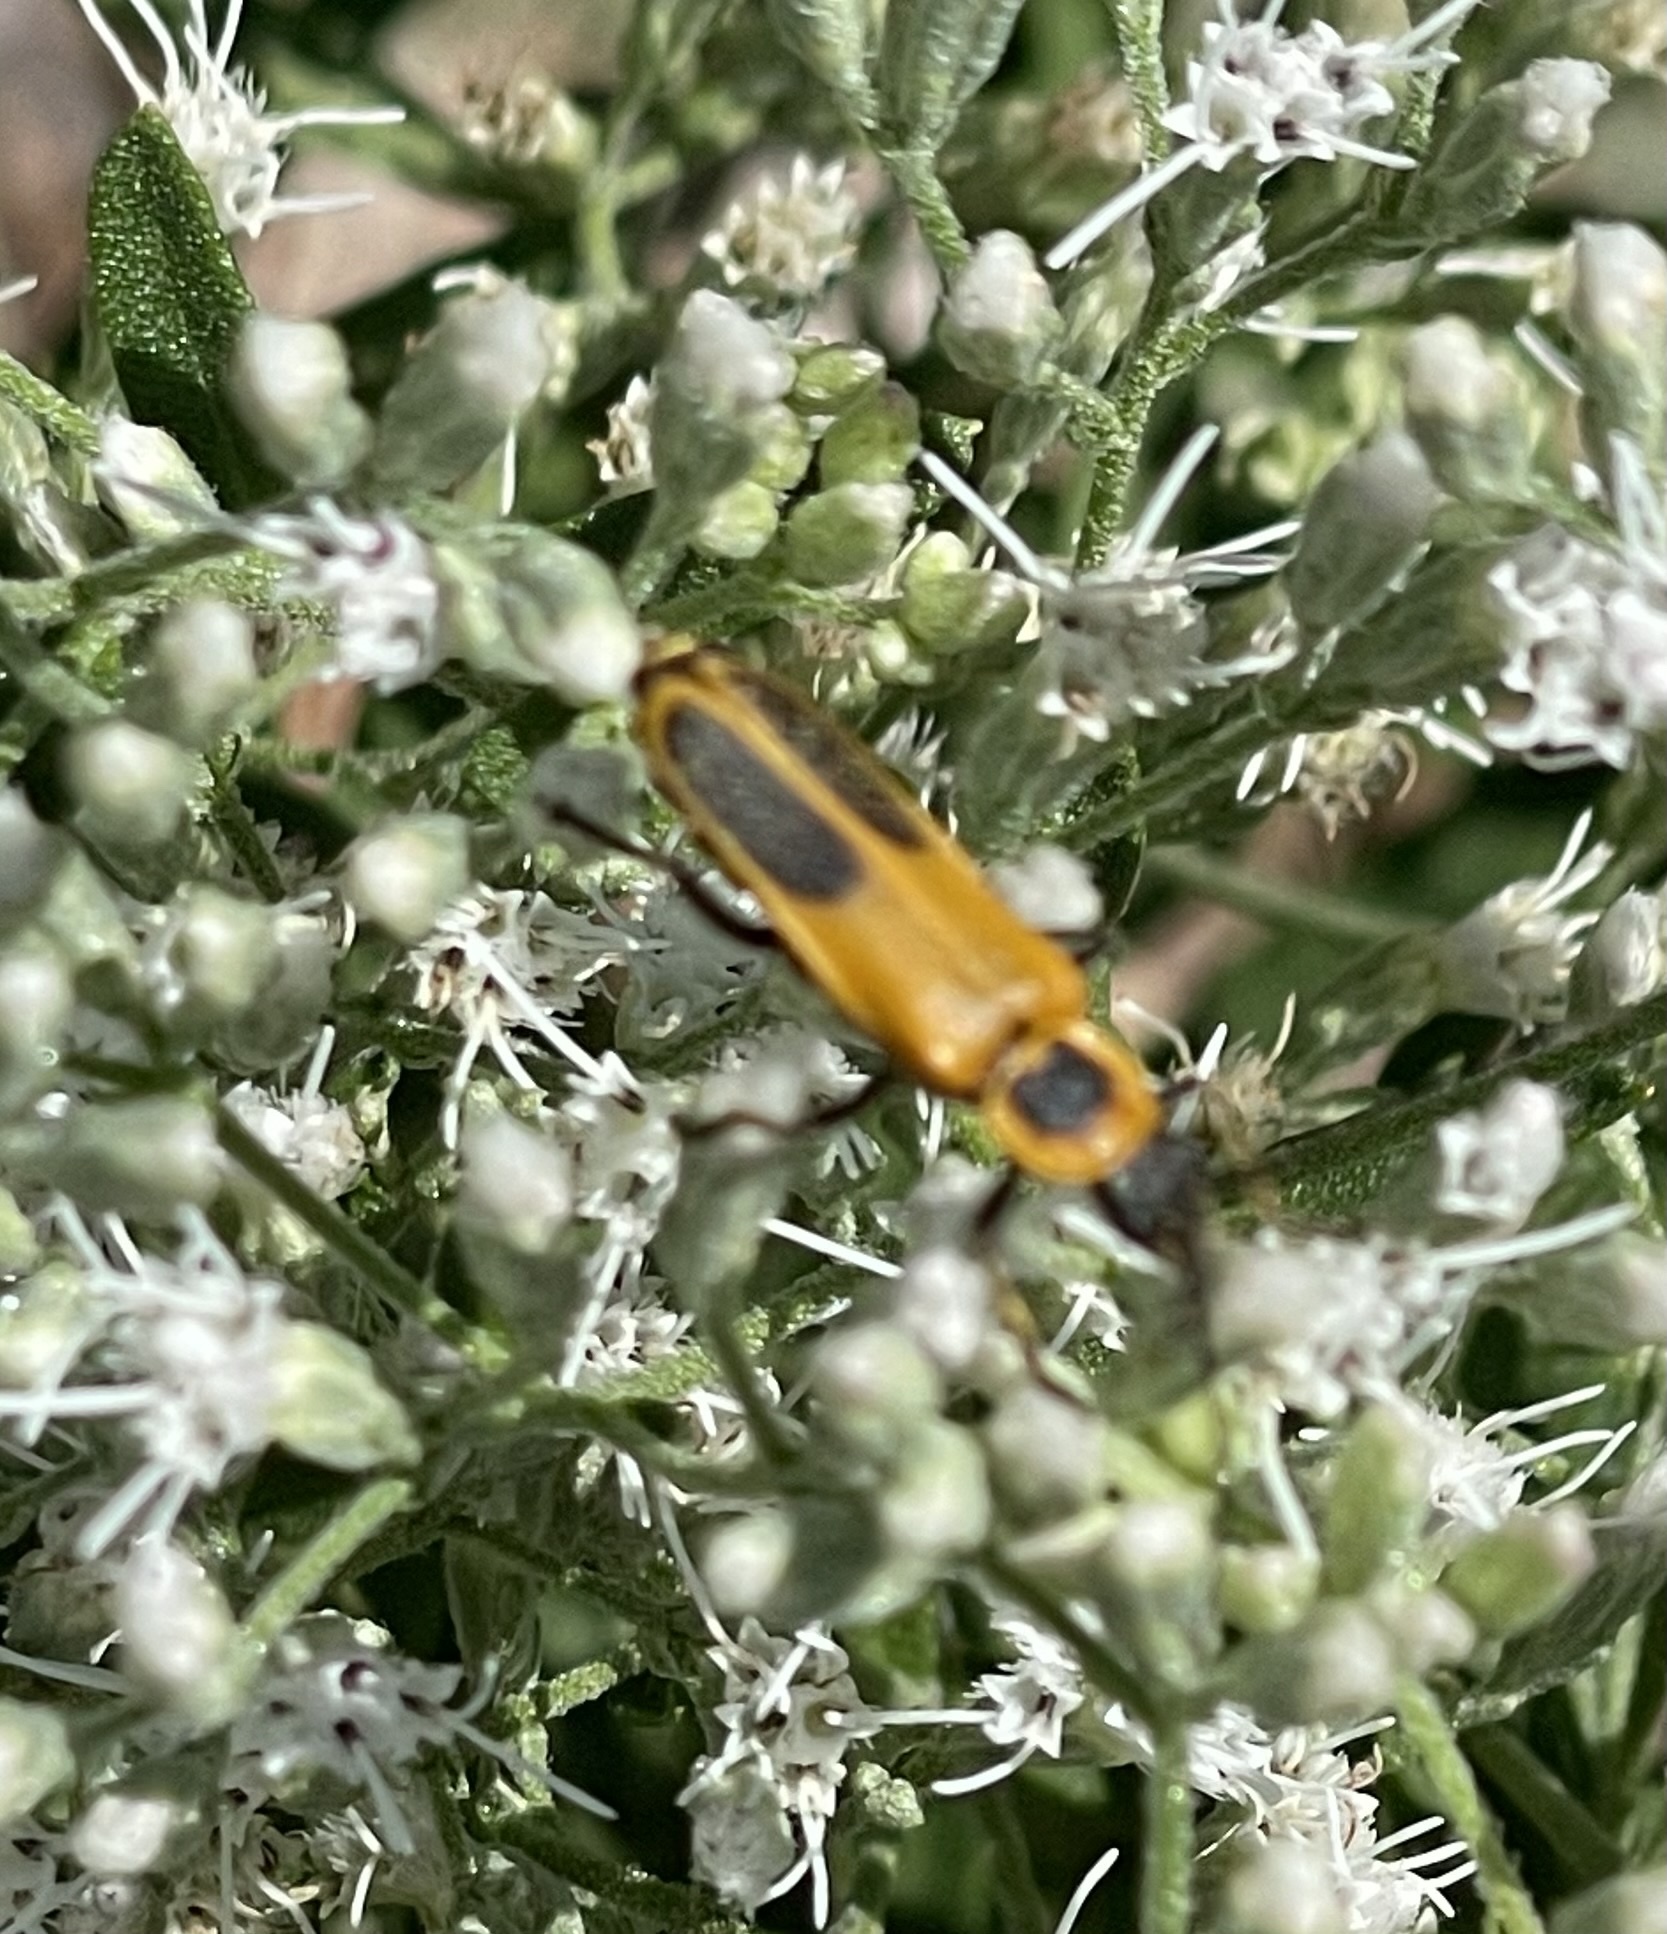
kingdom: Animalia
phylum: Arthropoda
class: Insecta
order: Coleoptera
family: Cantharidae
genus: Chauliognathus
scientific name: Chauliognathus pensylvanicus
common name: Goldenrod soldier beetle
